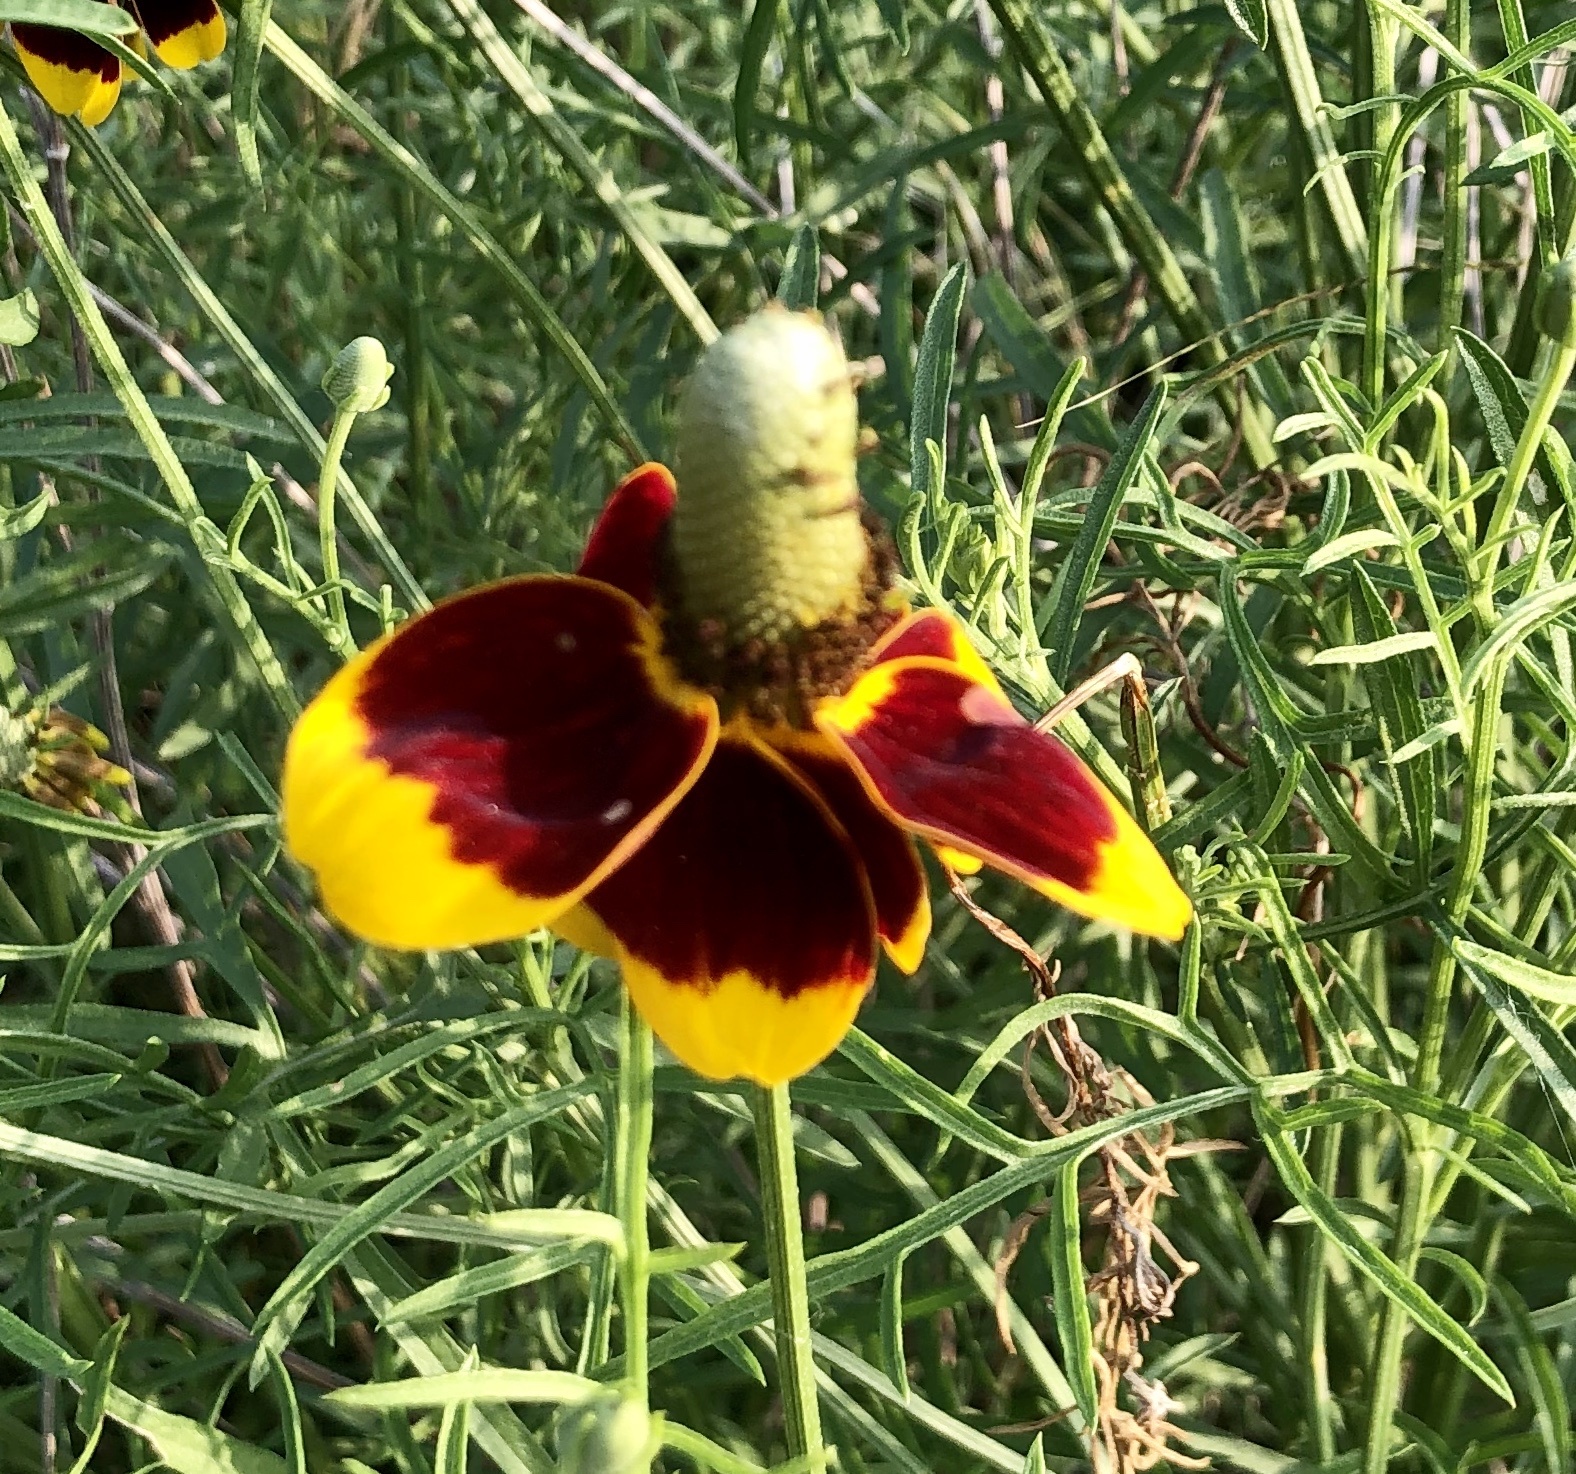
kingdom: Plantae
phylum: Tracheophyta
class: Magnoliopsida
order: Asterales
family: Asteraceae
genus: Ratibida
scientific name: Ratibida columnifera
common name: Prairie coneflower
